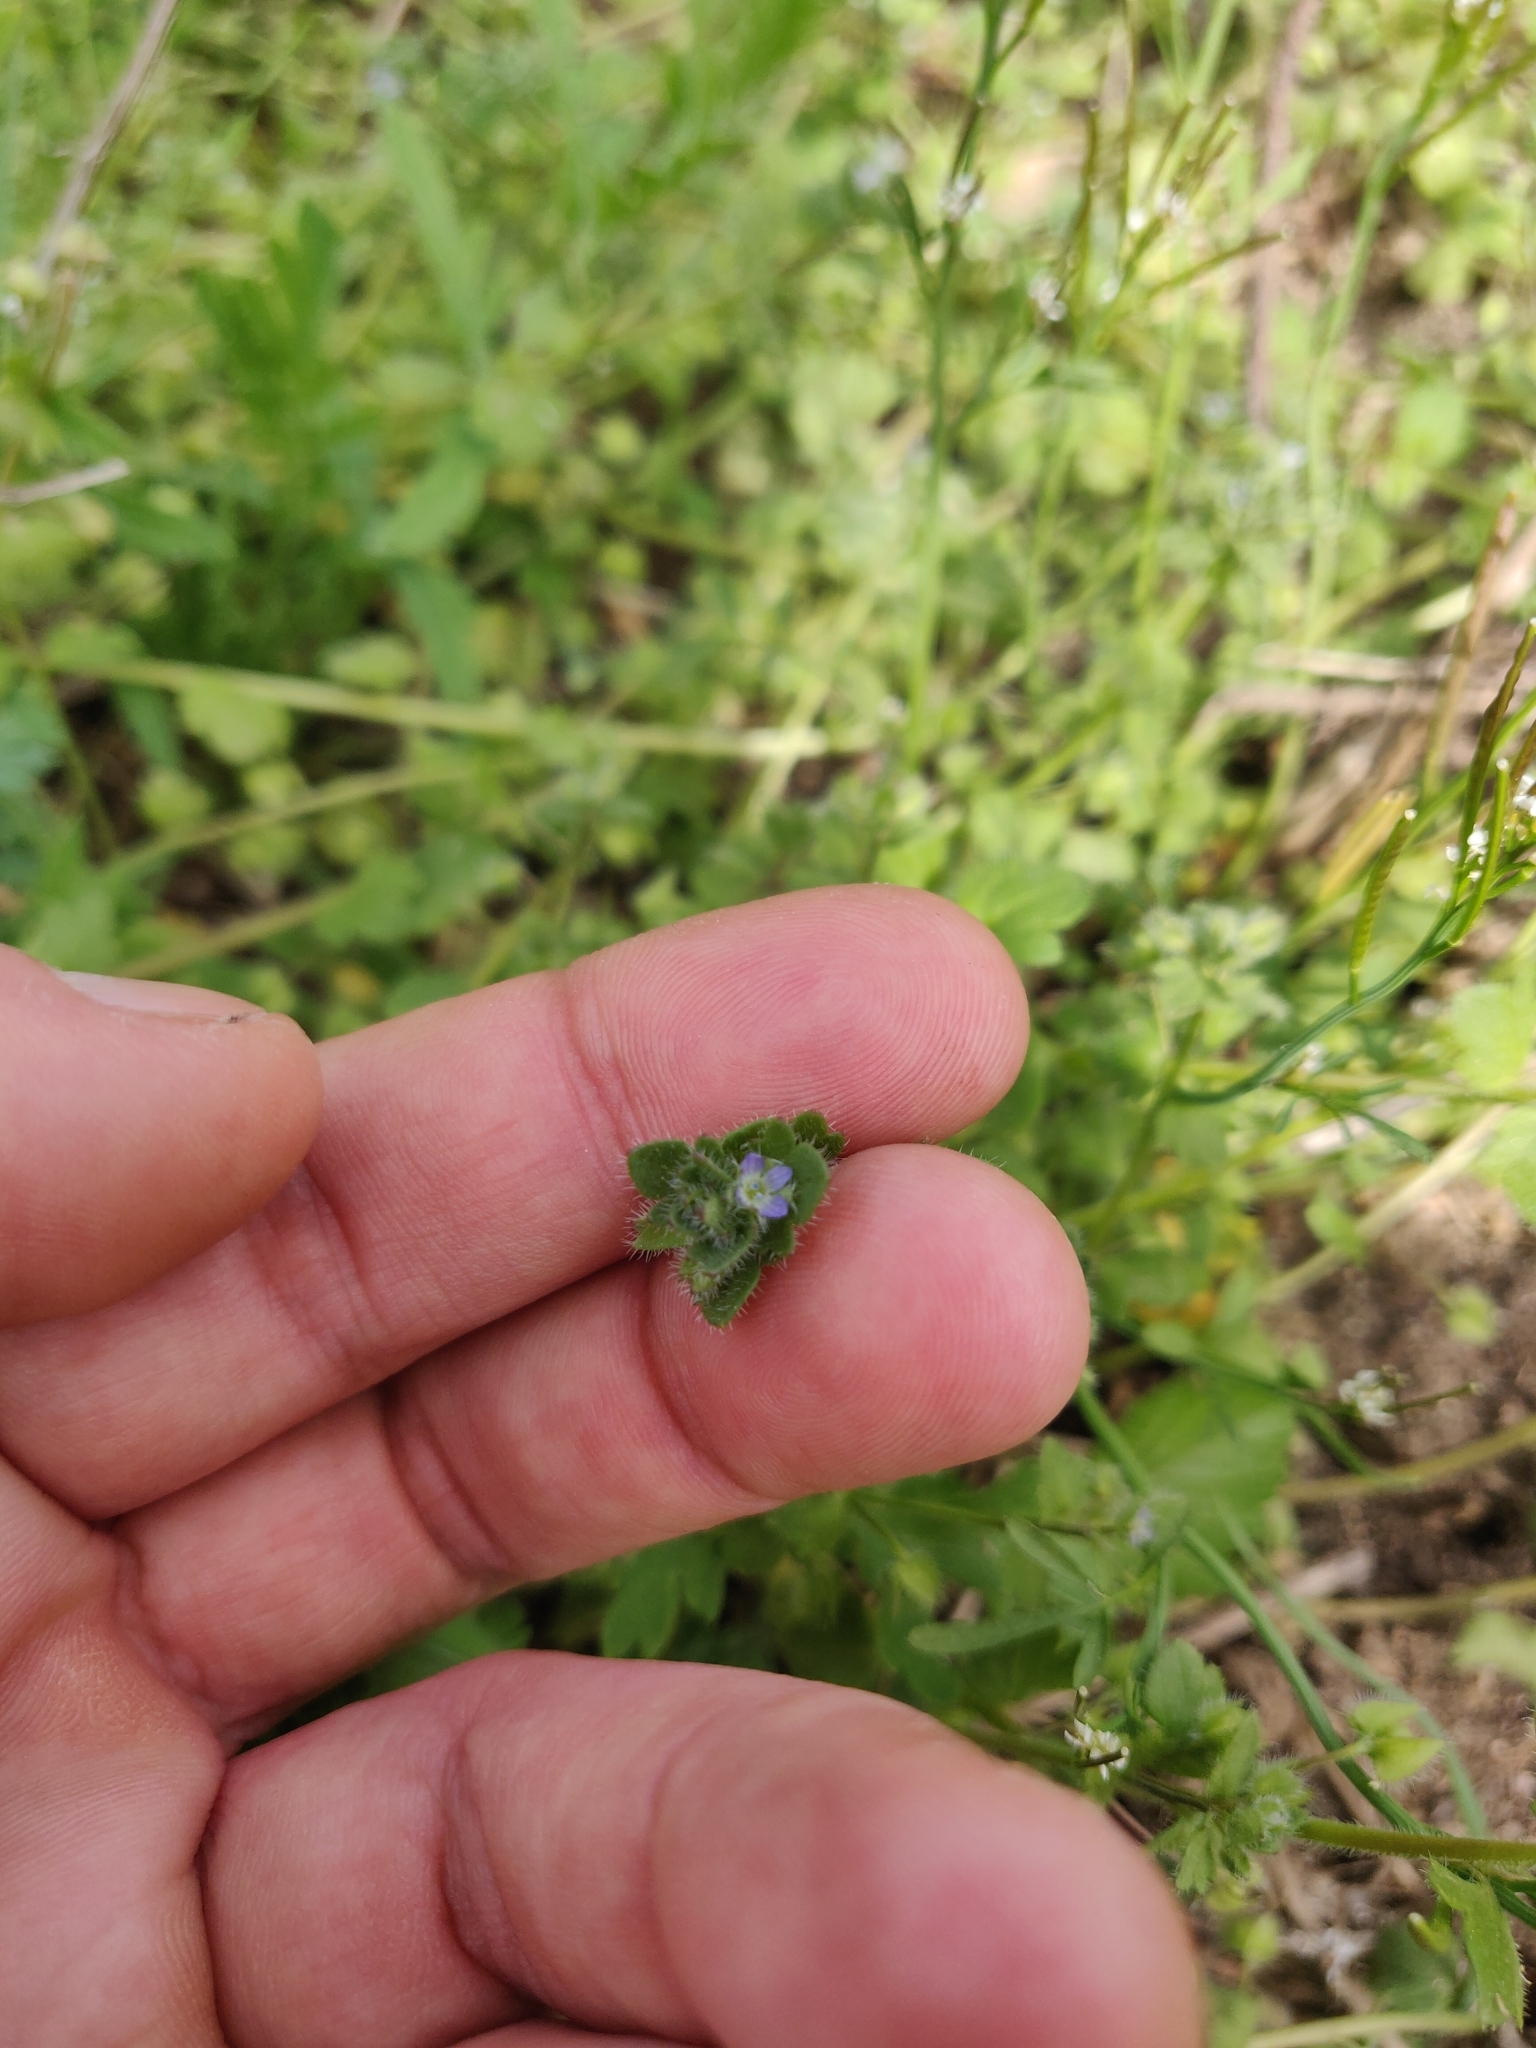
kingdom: Plantae
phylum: Tracheophyta
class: Magnoliopsida
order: Lamiales
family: Plantaginaceae
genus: Veronica
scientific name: Veronica hederifolia
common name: Ivy-leaved speedwell
